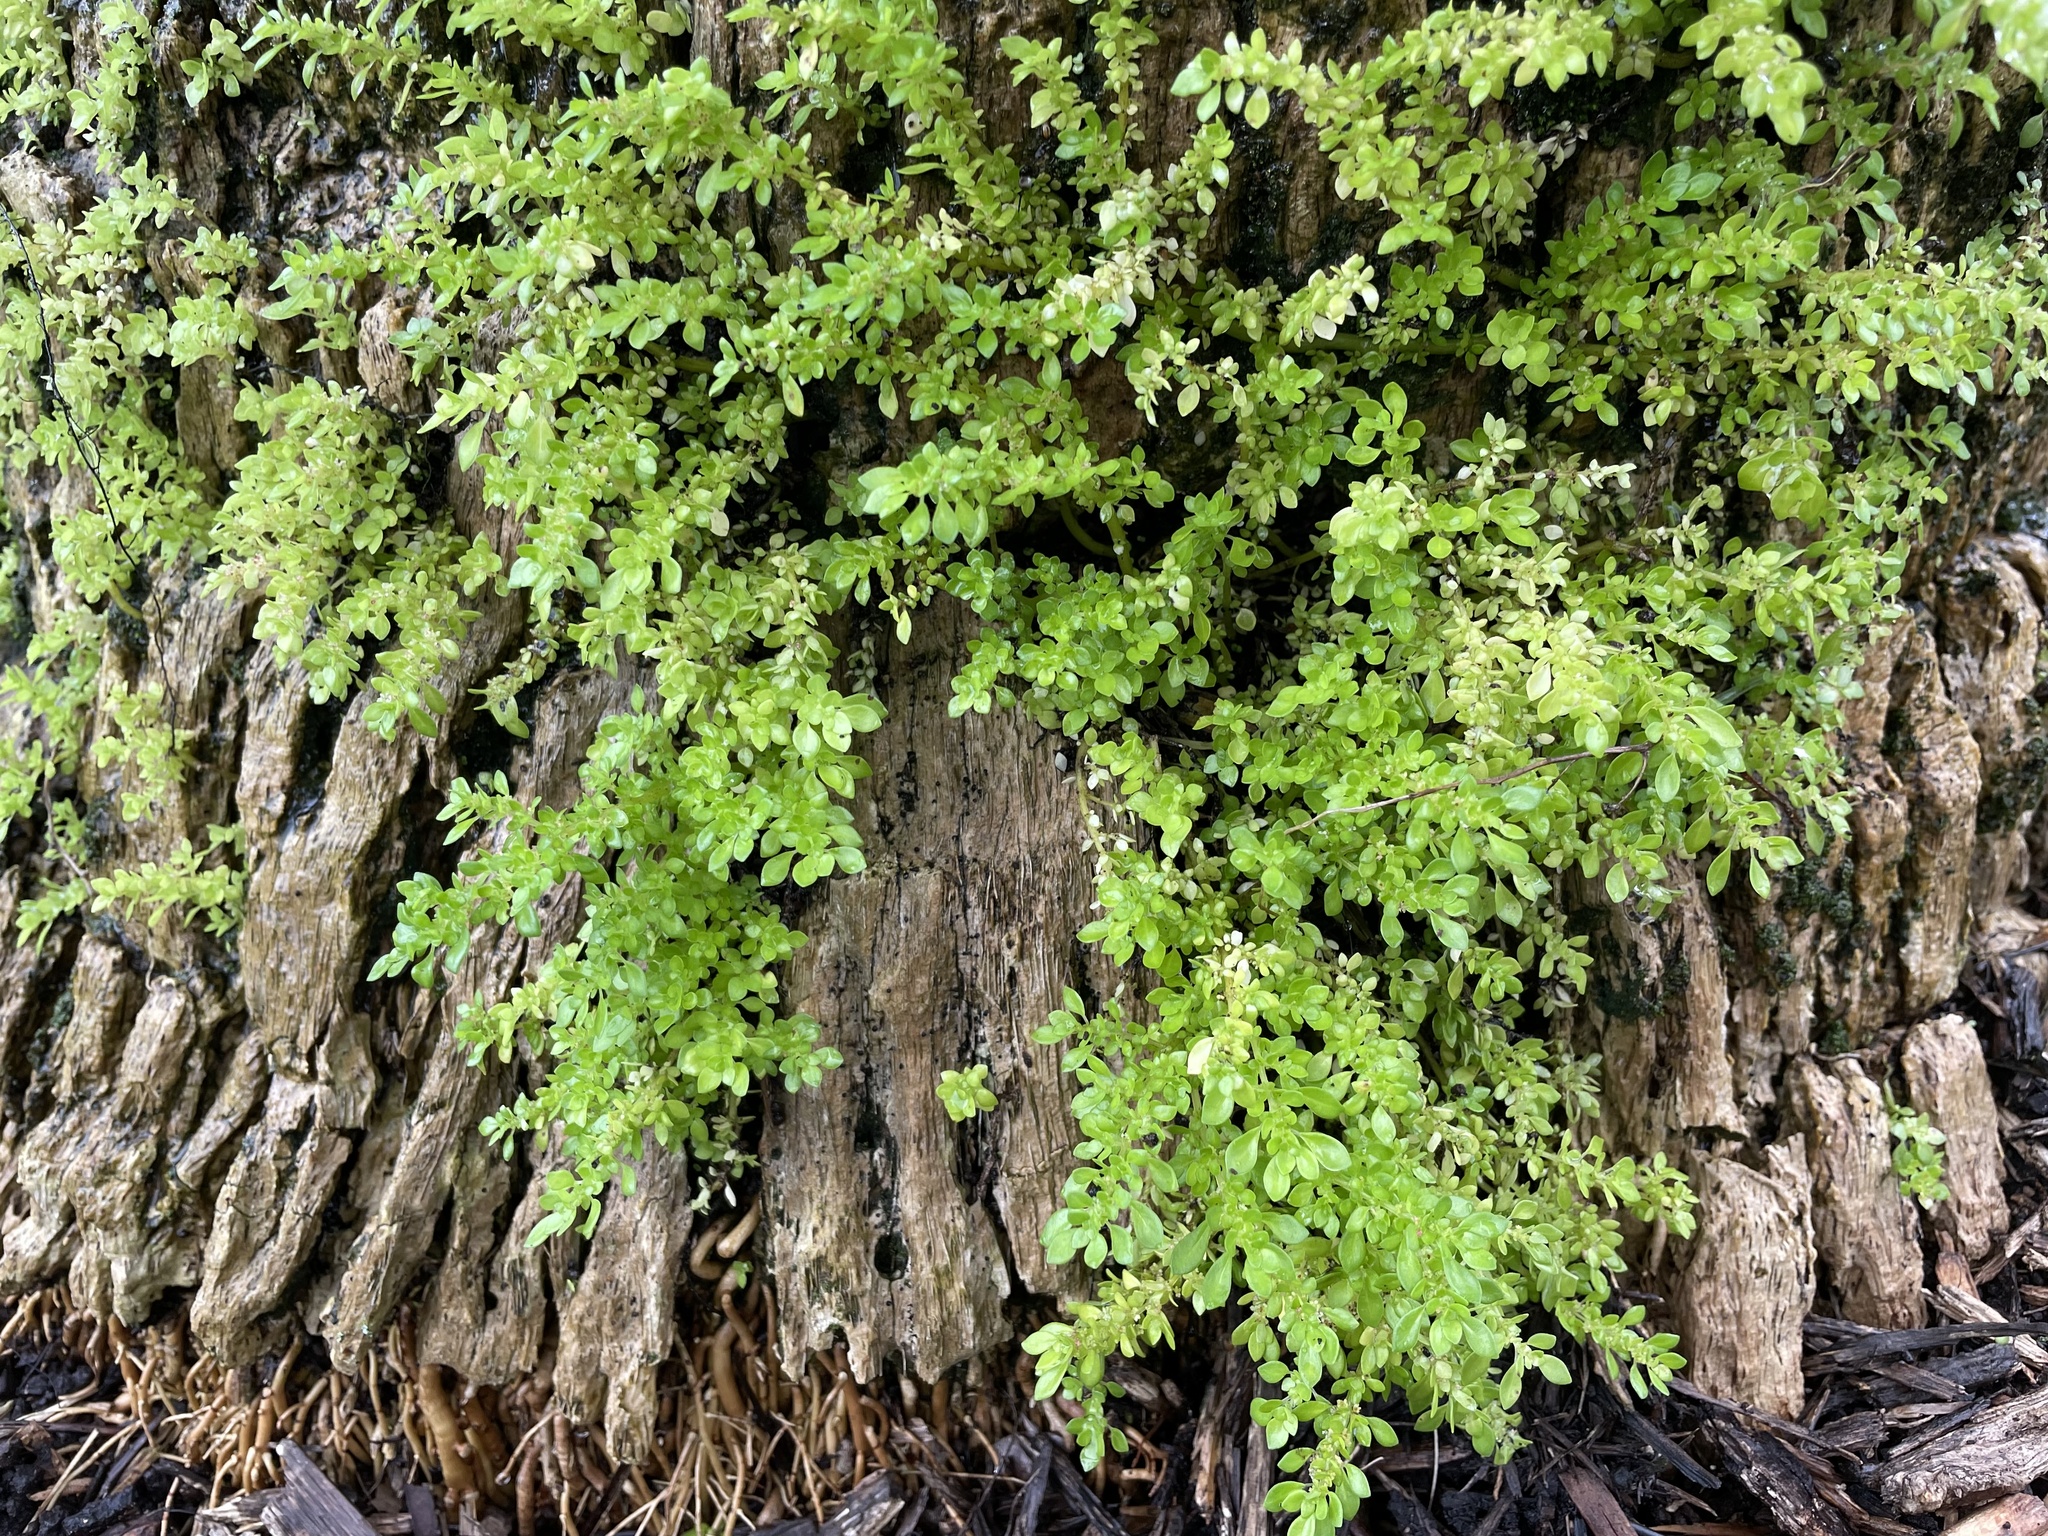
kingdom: Plantae
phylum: Tracheophyta
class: Magnoliopsida
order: Rosales
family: Urticaceae
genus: Pilea
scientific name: Pilea microphylla
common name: Artillery-plant
